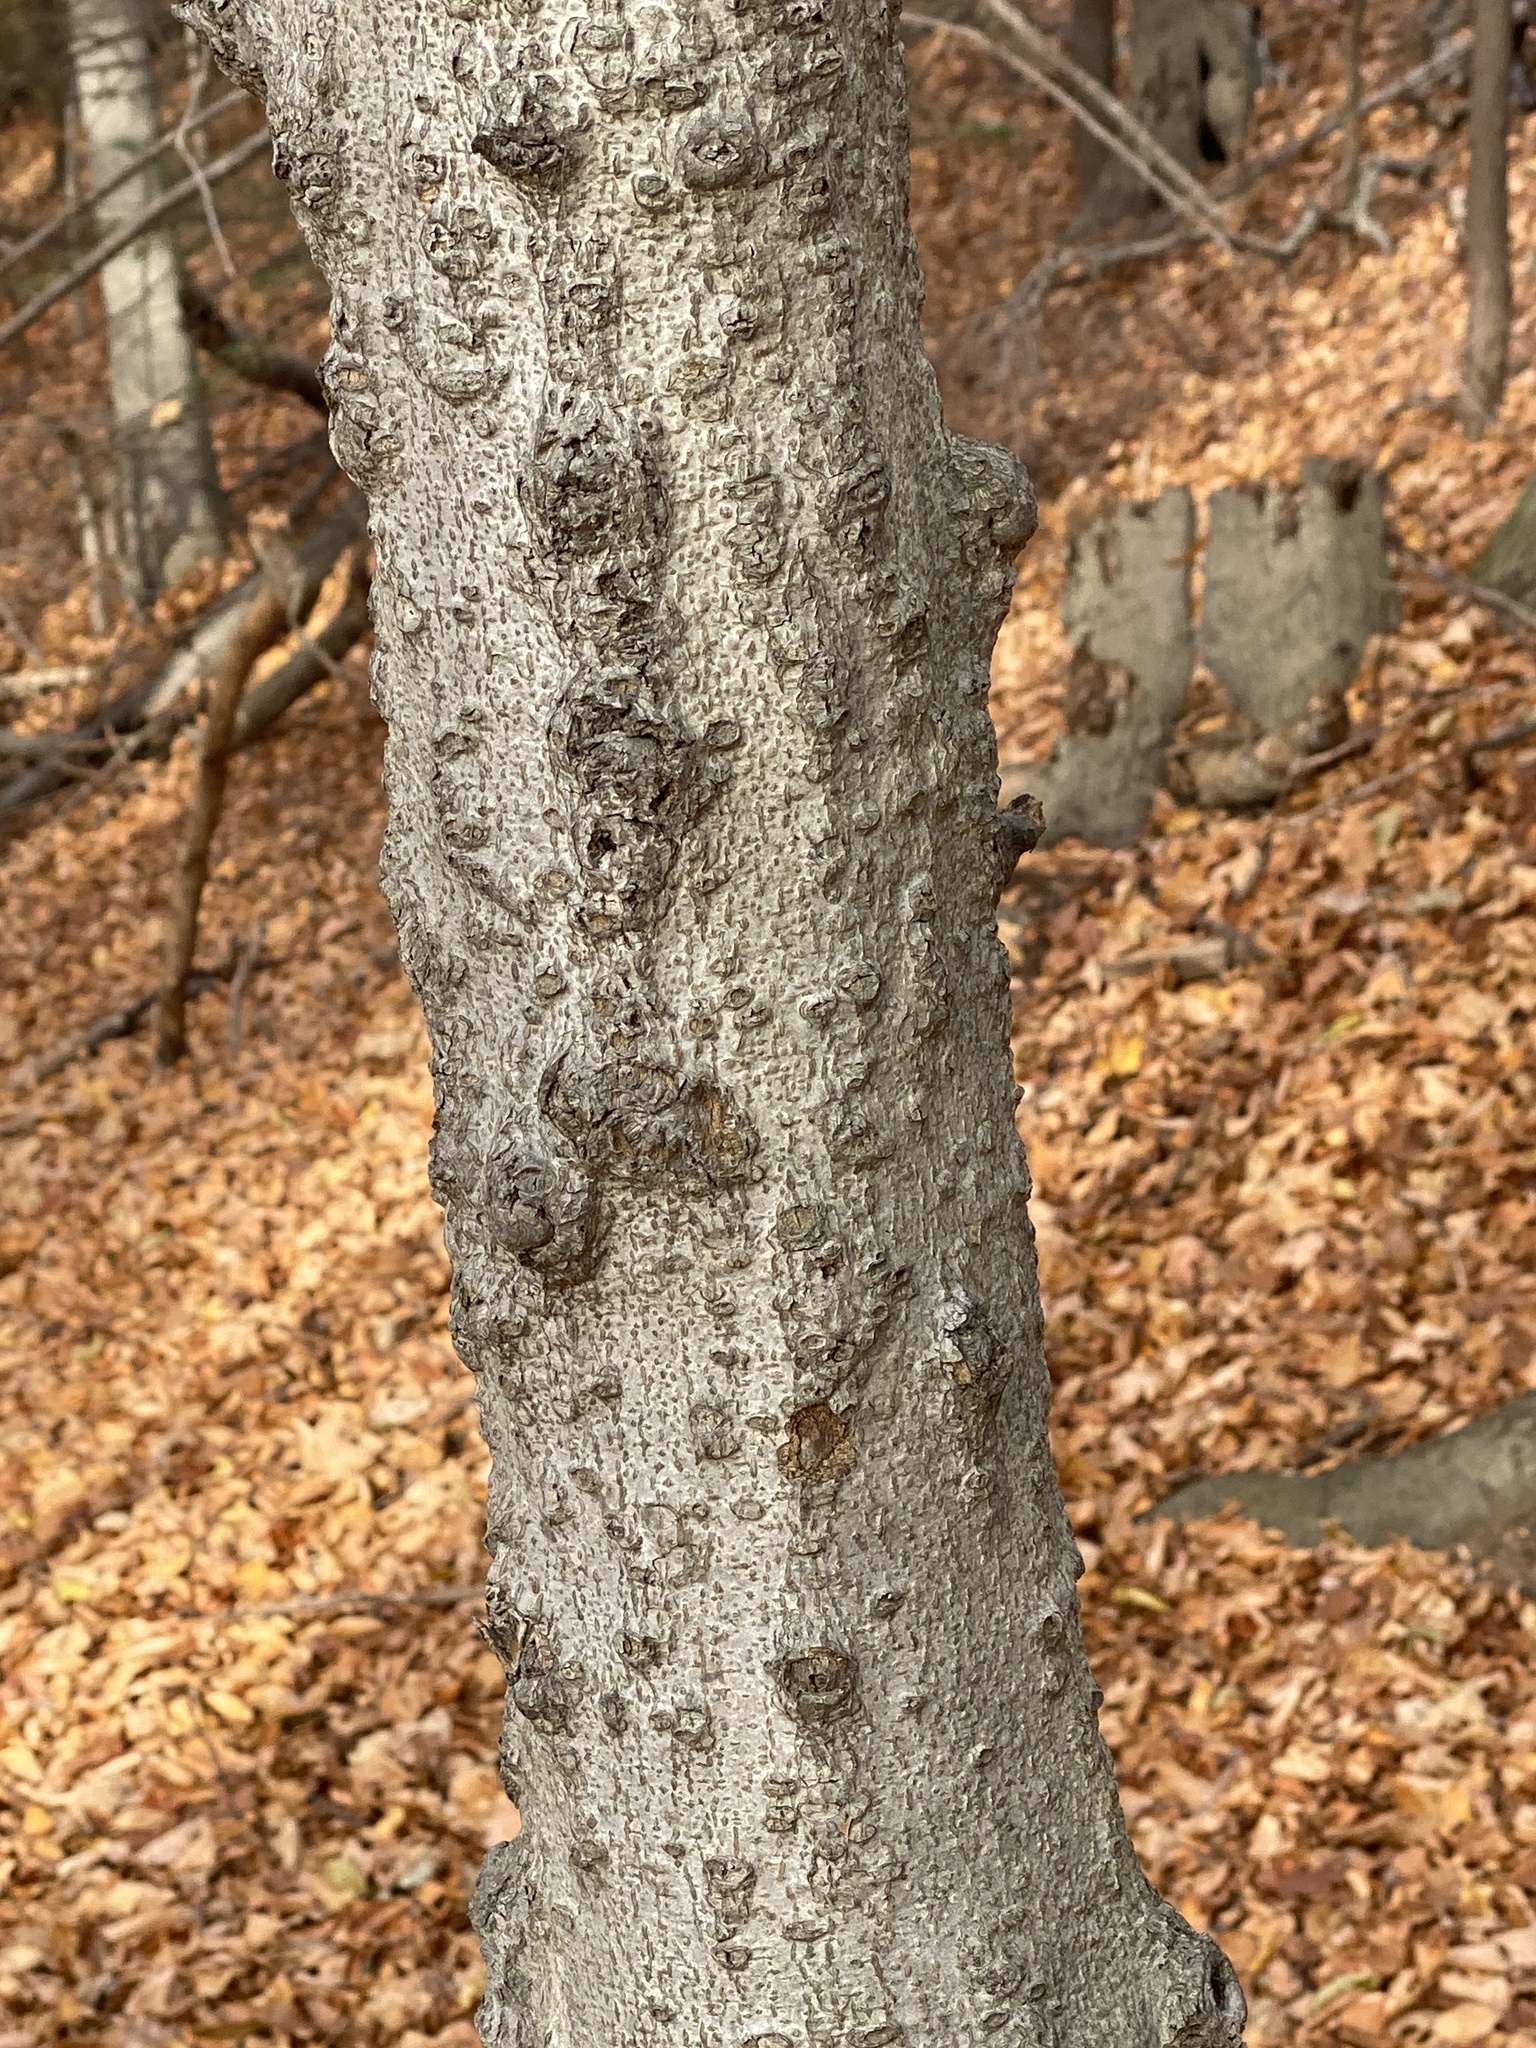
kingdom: Fungi
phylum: Ascomycota
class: Sordariomycetes
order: Hypocreales
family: Nectriaceae
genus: Neonectria
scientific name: Neonectria faginata
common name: Beech bark canker
